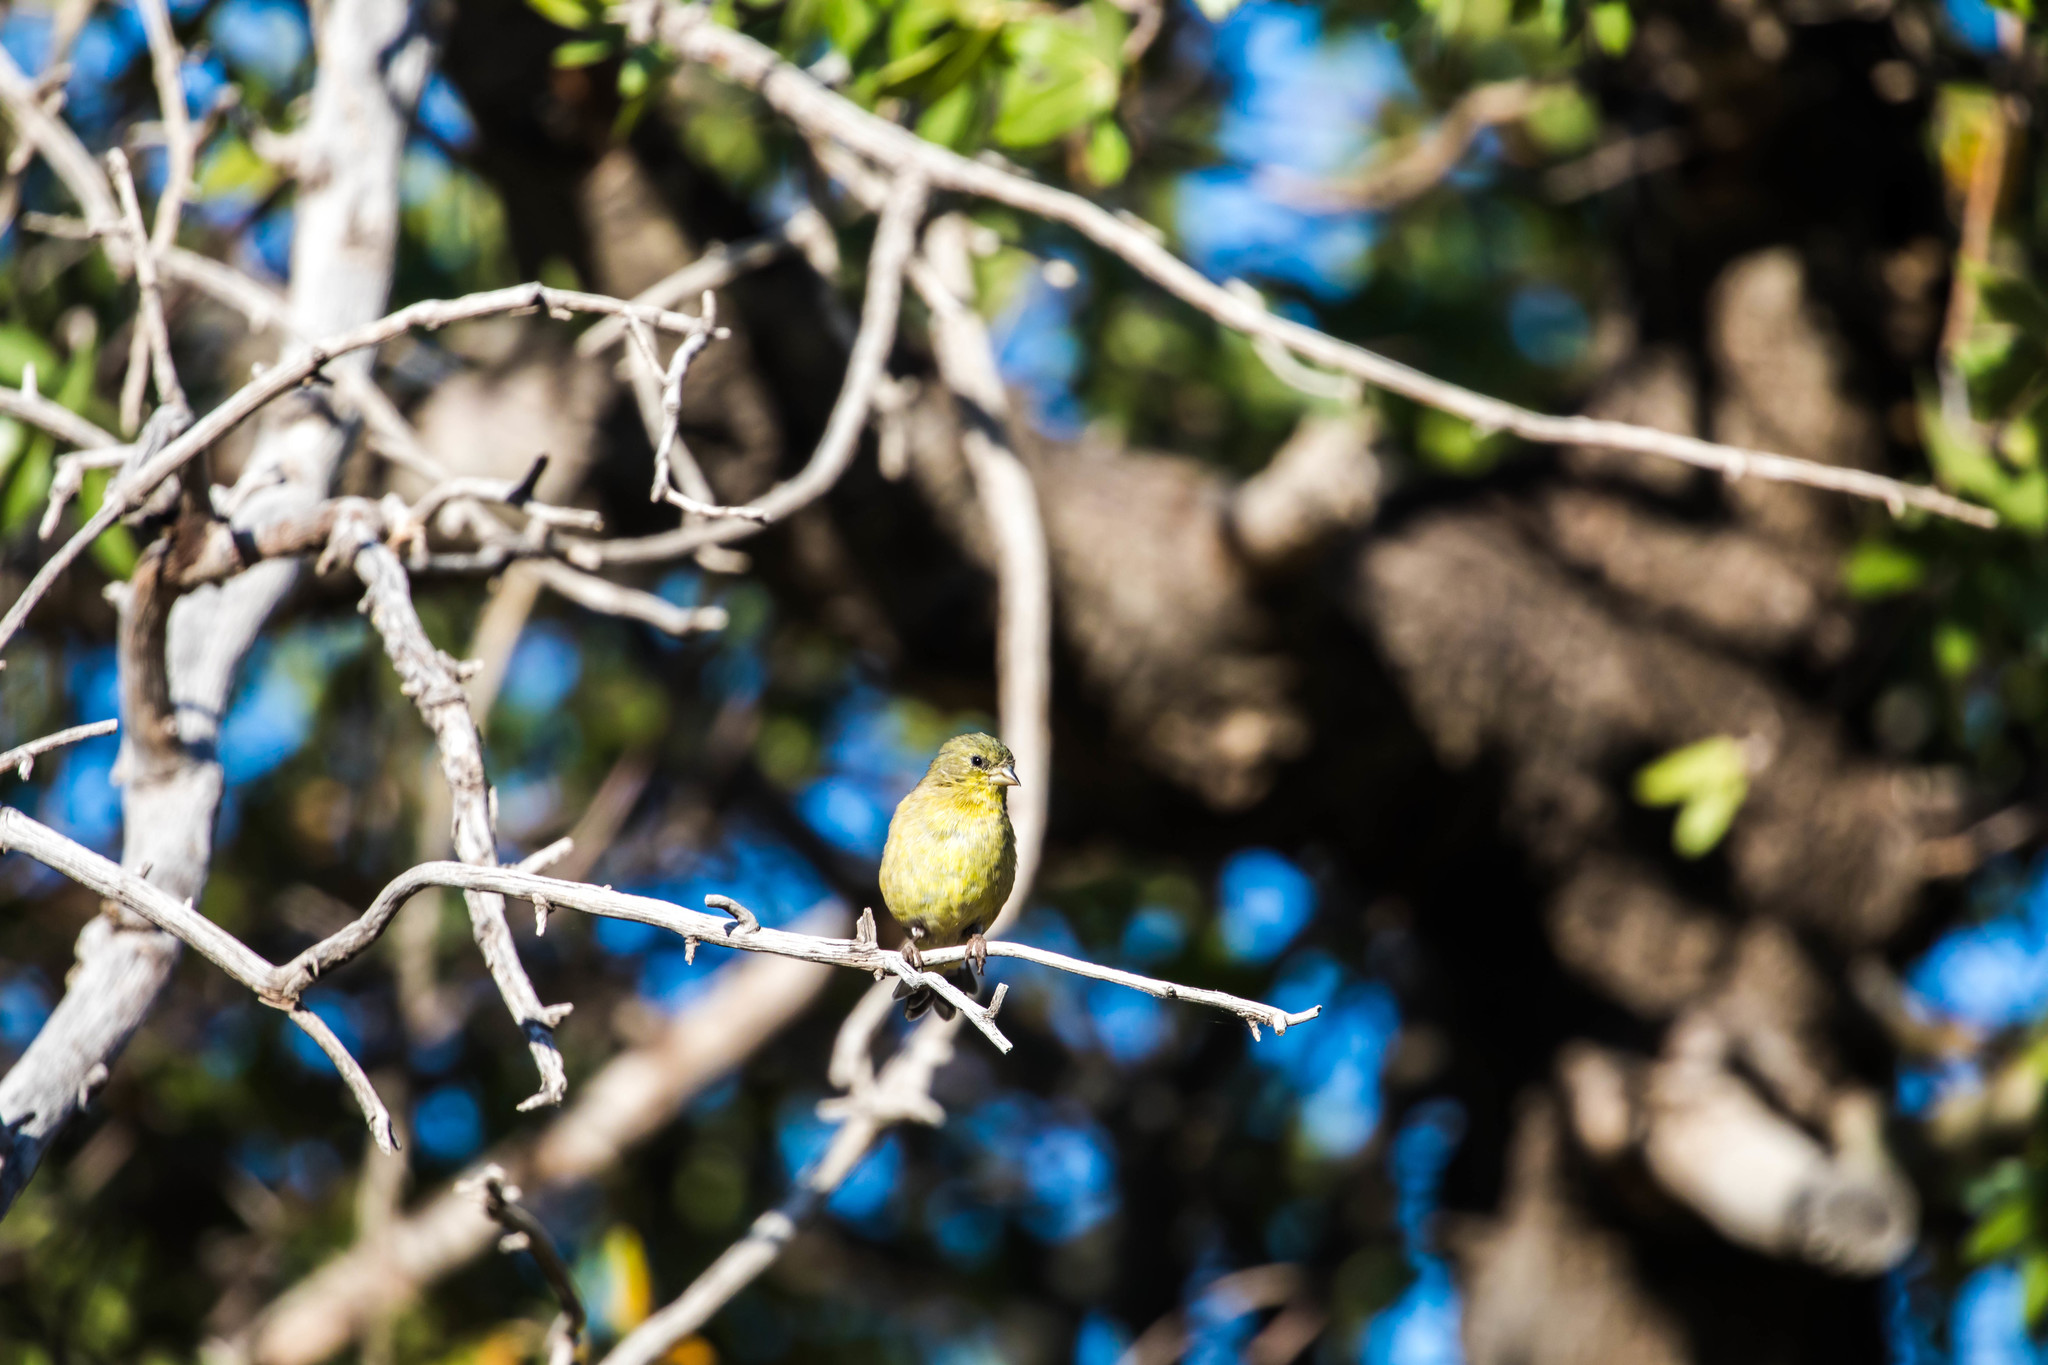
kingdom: Animalia
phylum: Chordata
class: Aves
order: Passeriformes
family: Fringillidae
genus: Spinus
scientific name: Spinus psaltria
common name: Lesser goldfinch
